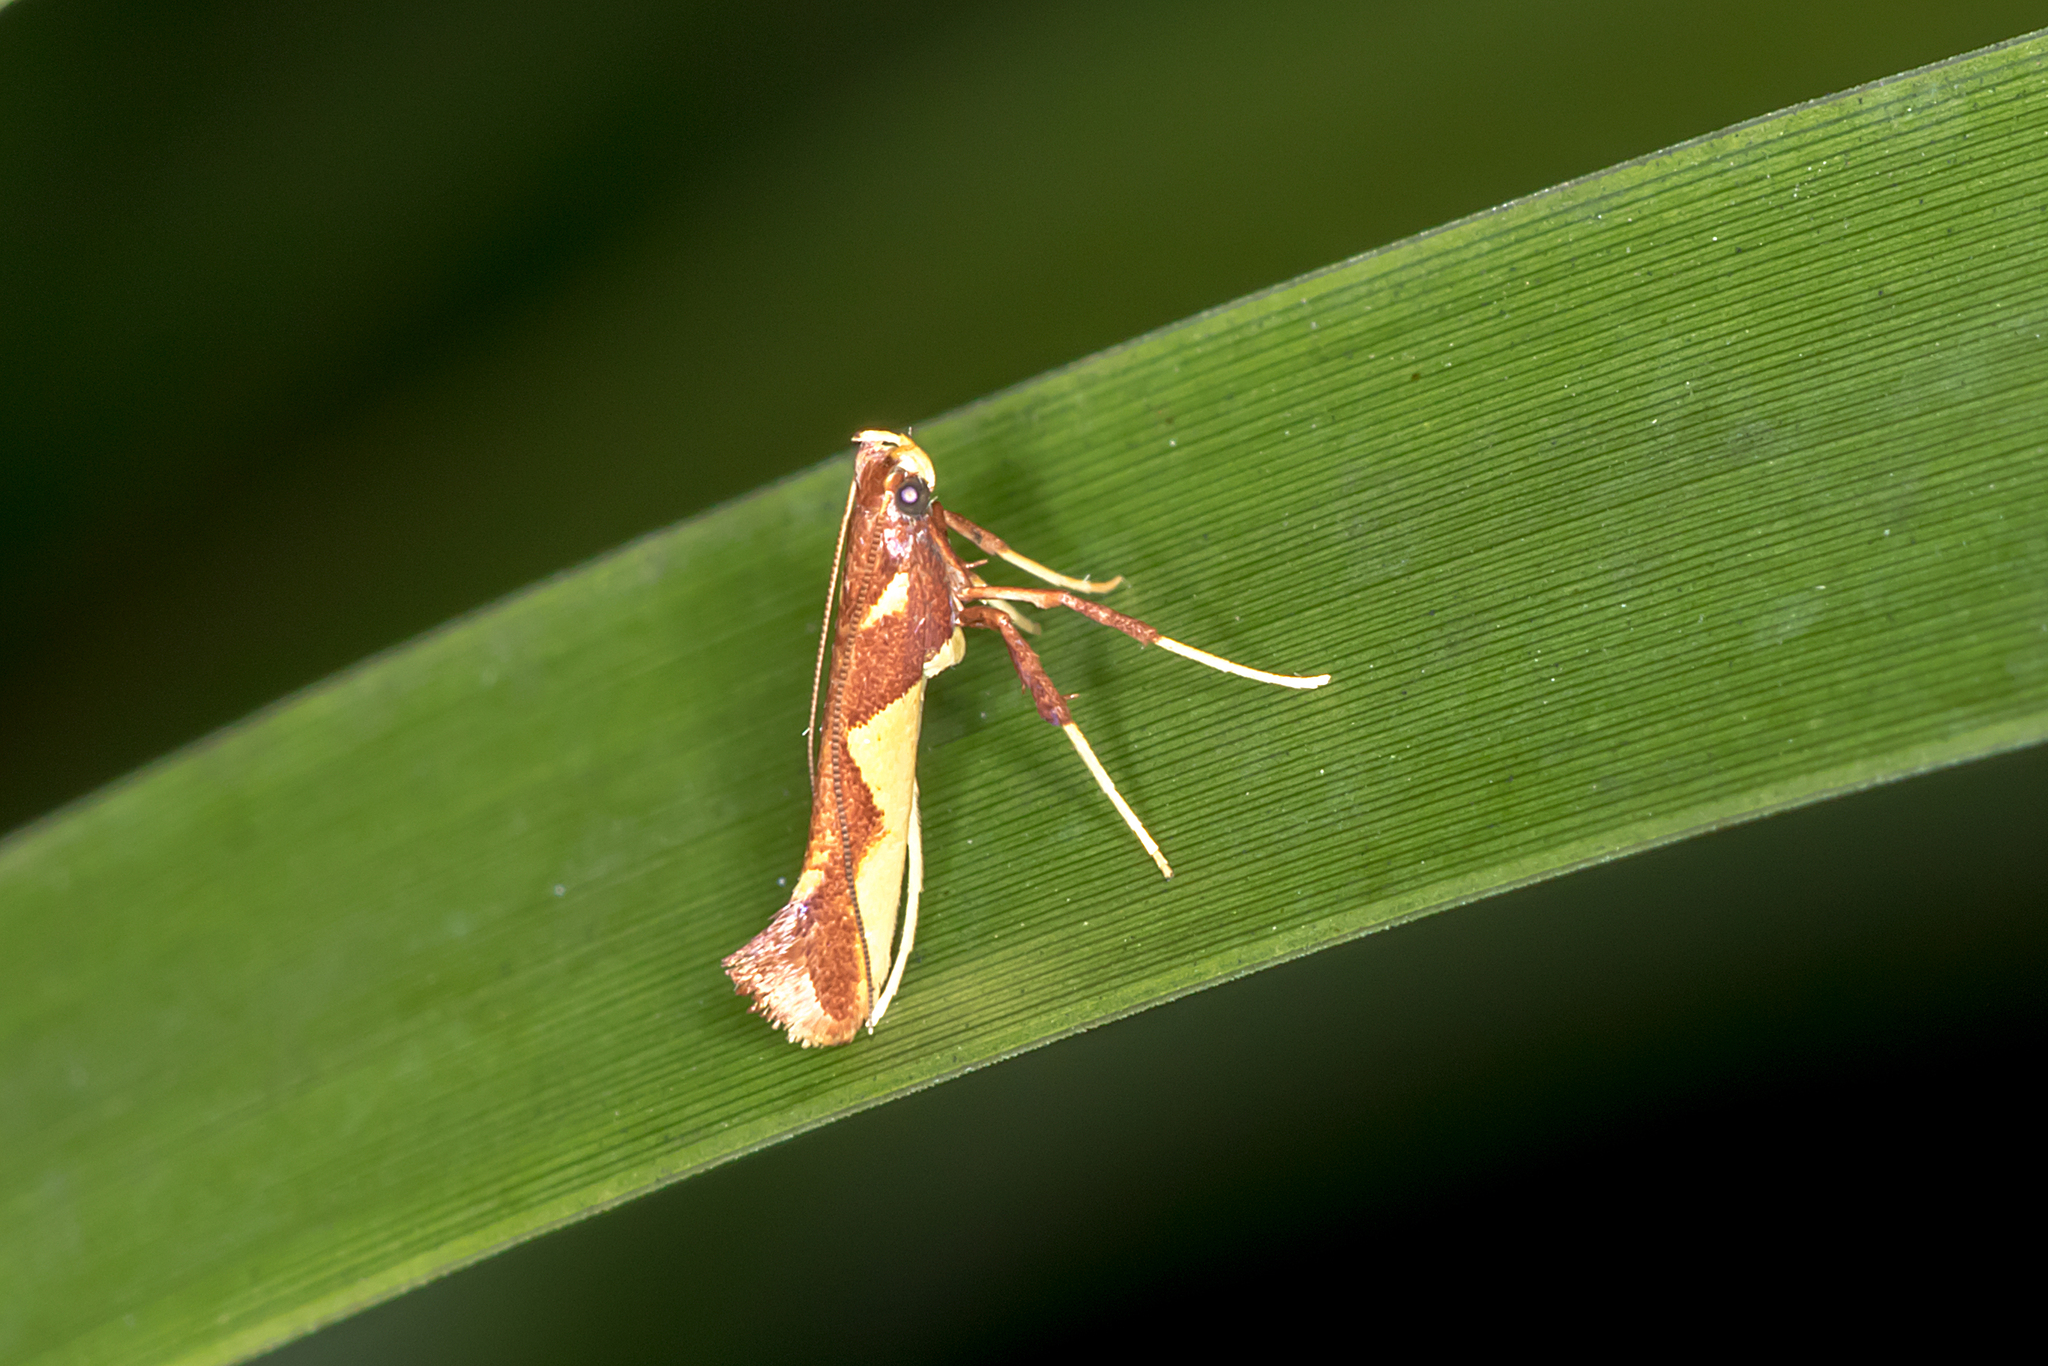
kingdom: Animalia
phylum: Arthropoda
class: Insecta
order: Lepidoptera
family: Gracillariidae
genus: Caloptilia
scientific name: Caloptilia xanthopharella
